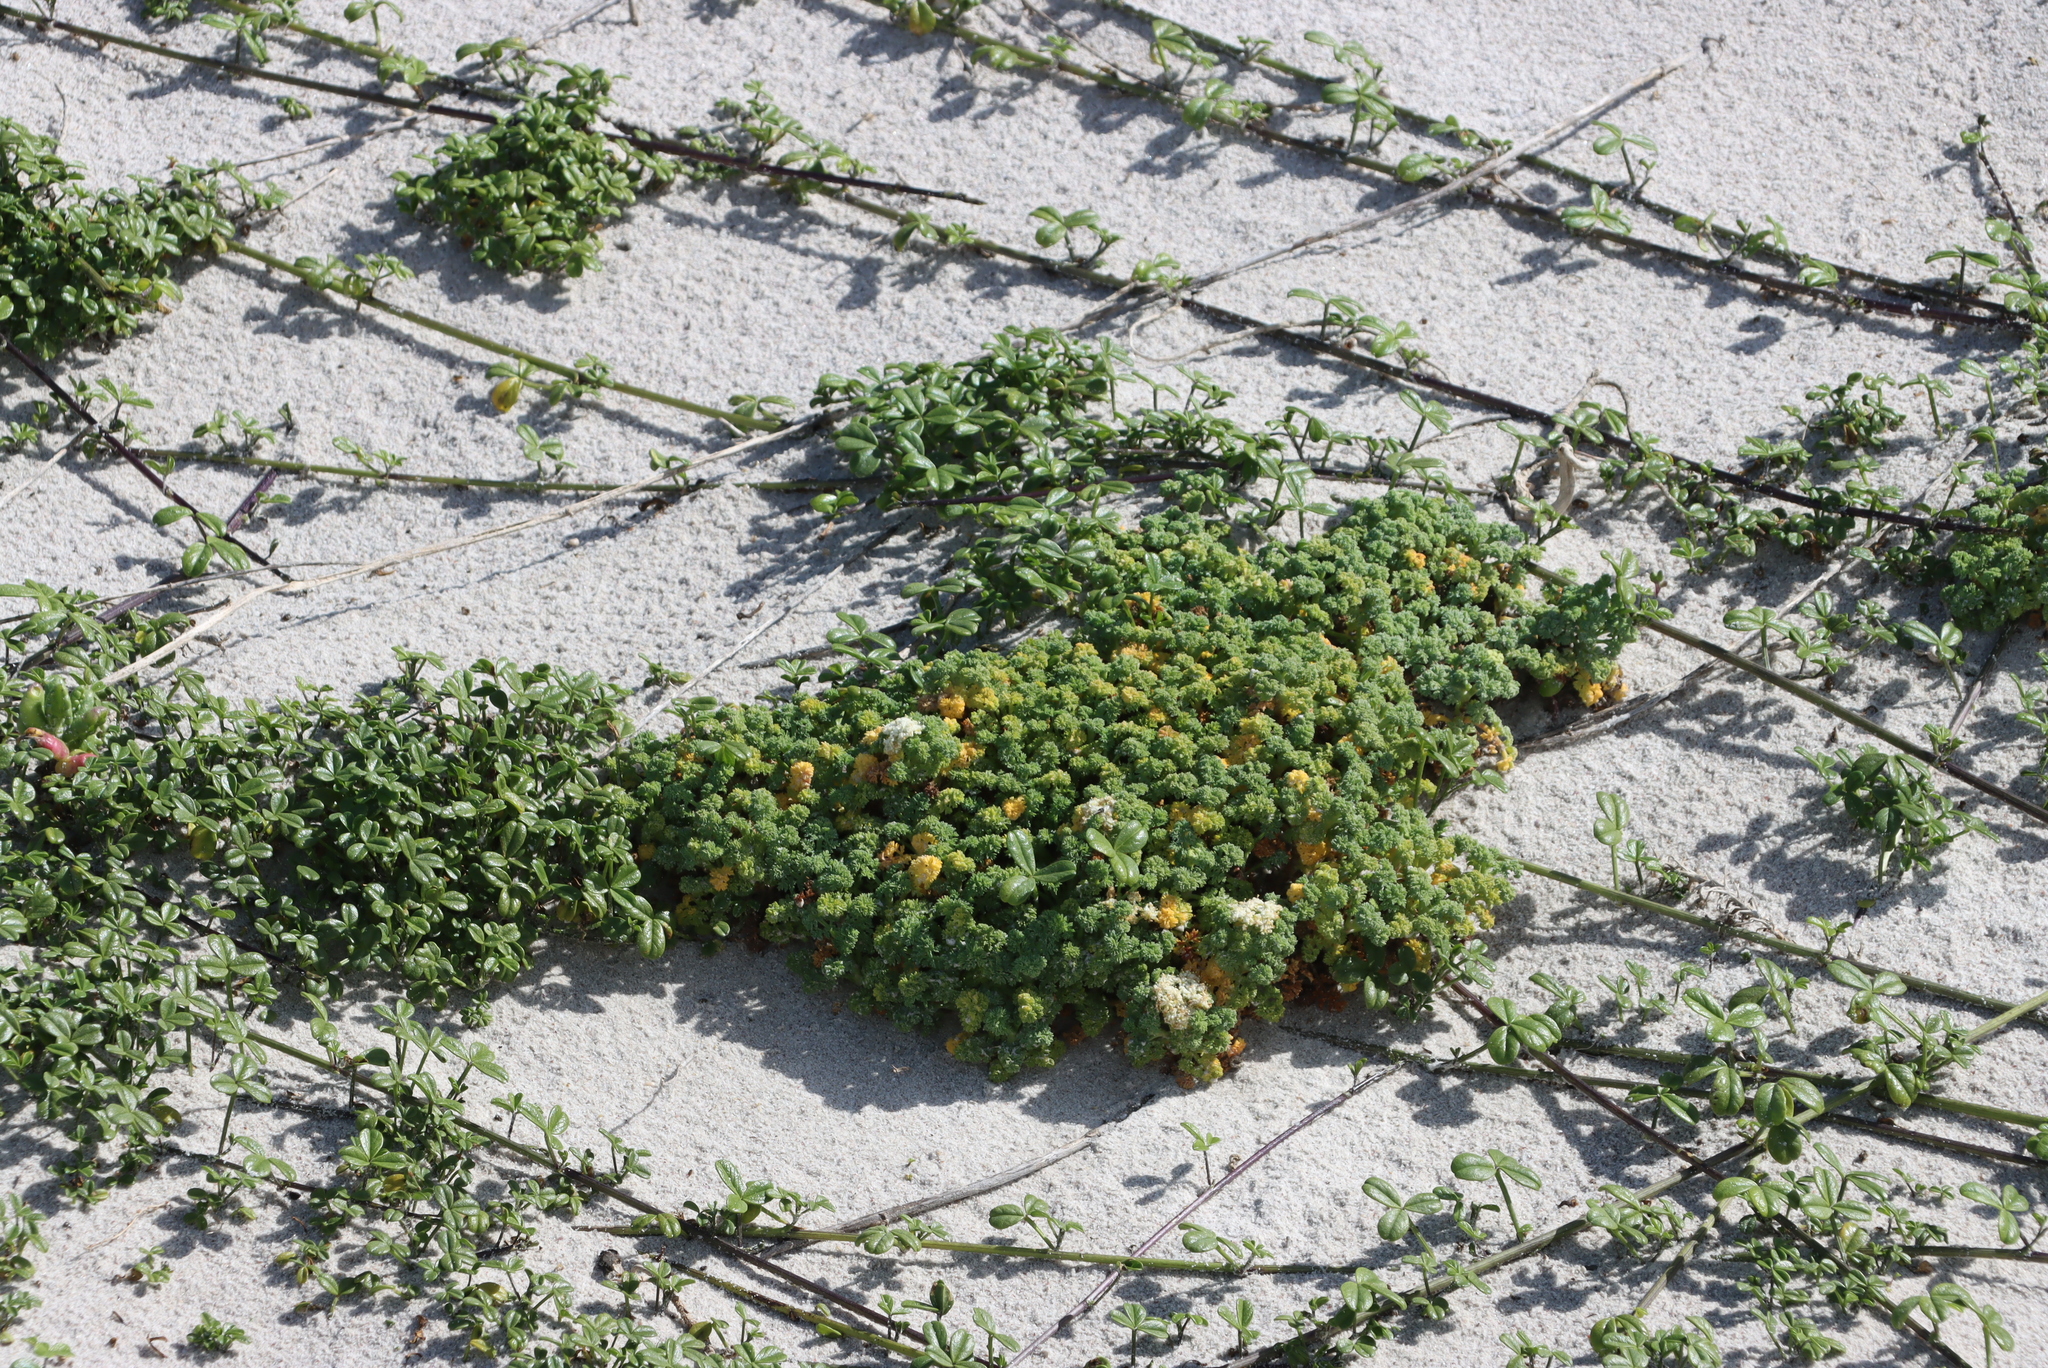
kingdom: Plantae
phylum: Tracheophyta
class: Magnoliopsida
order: Apiales
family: Apiaceae
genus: Dasispermum
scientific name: Dasispermum suffruticosum
